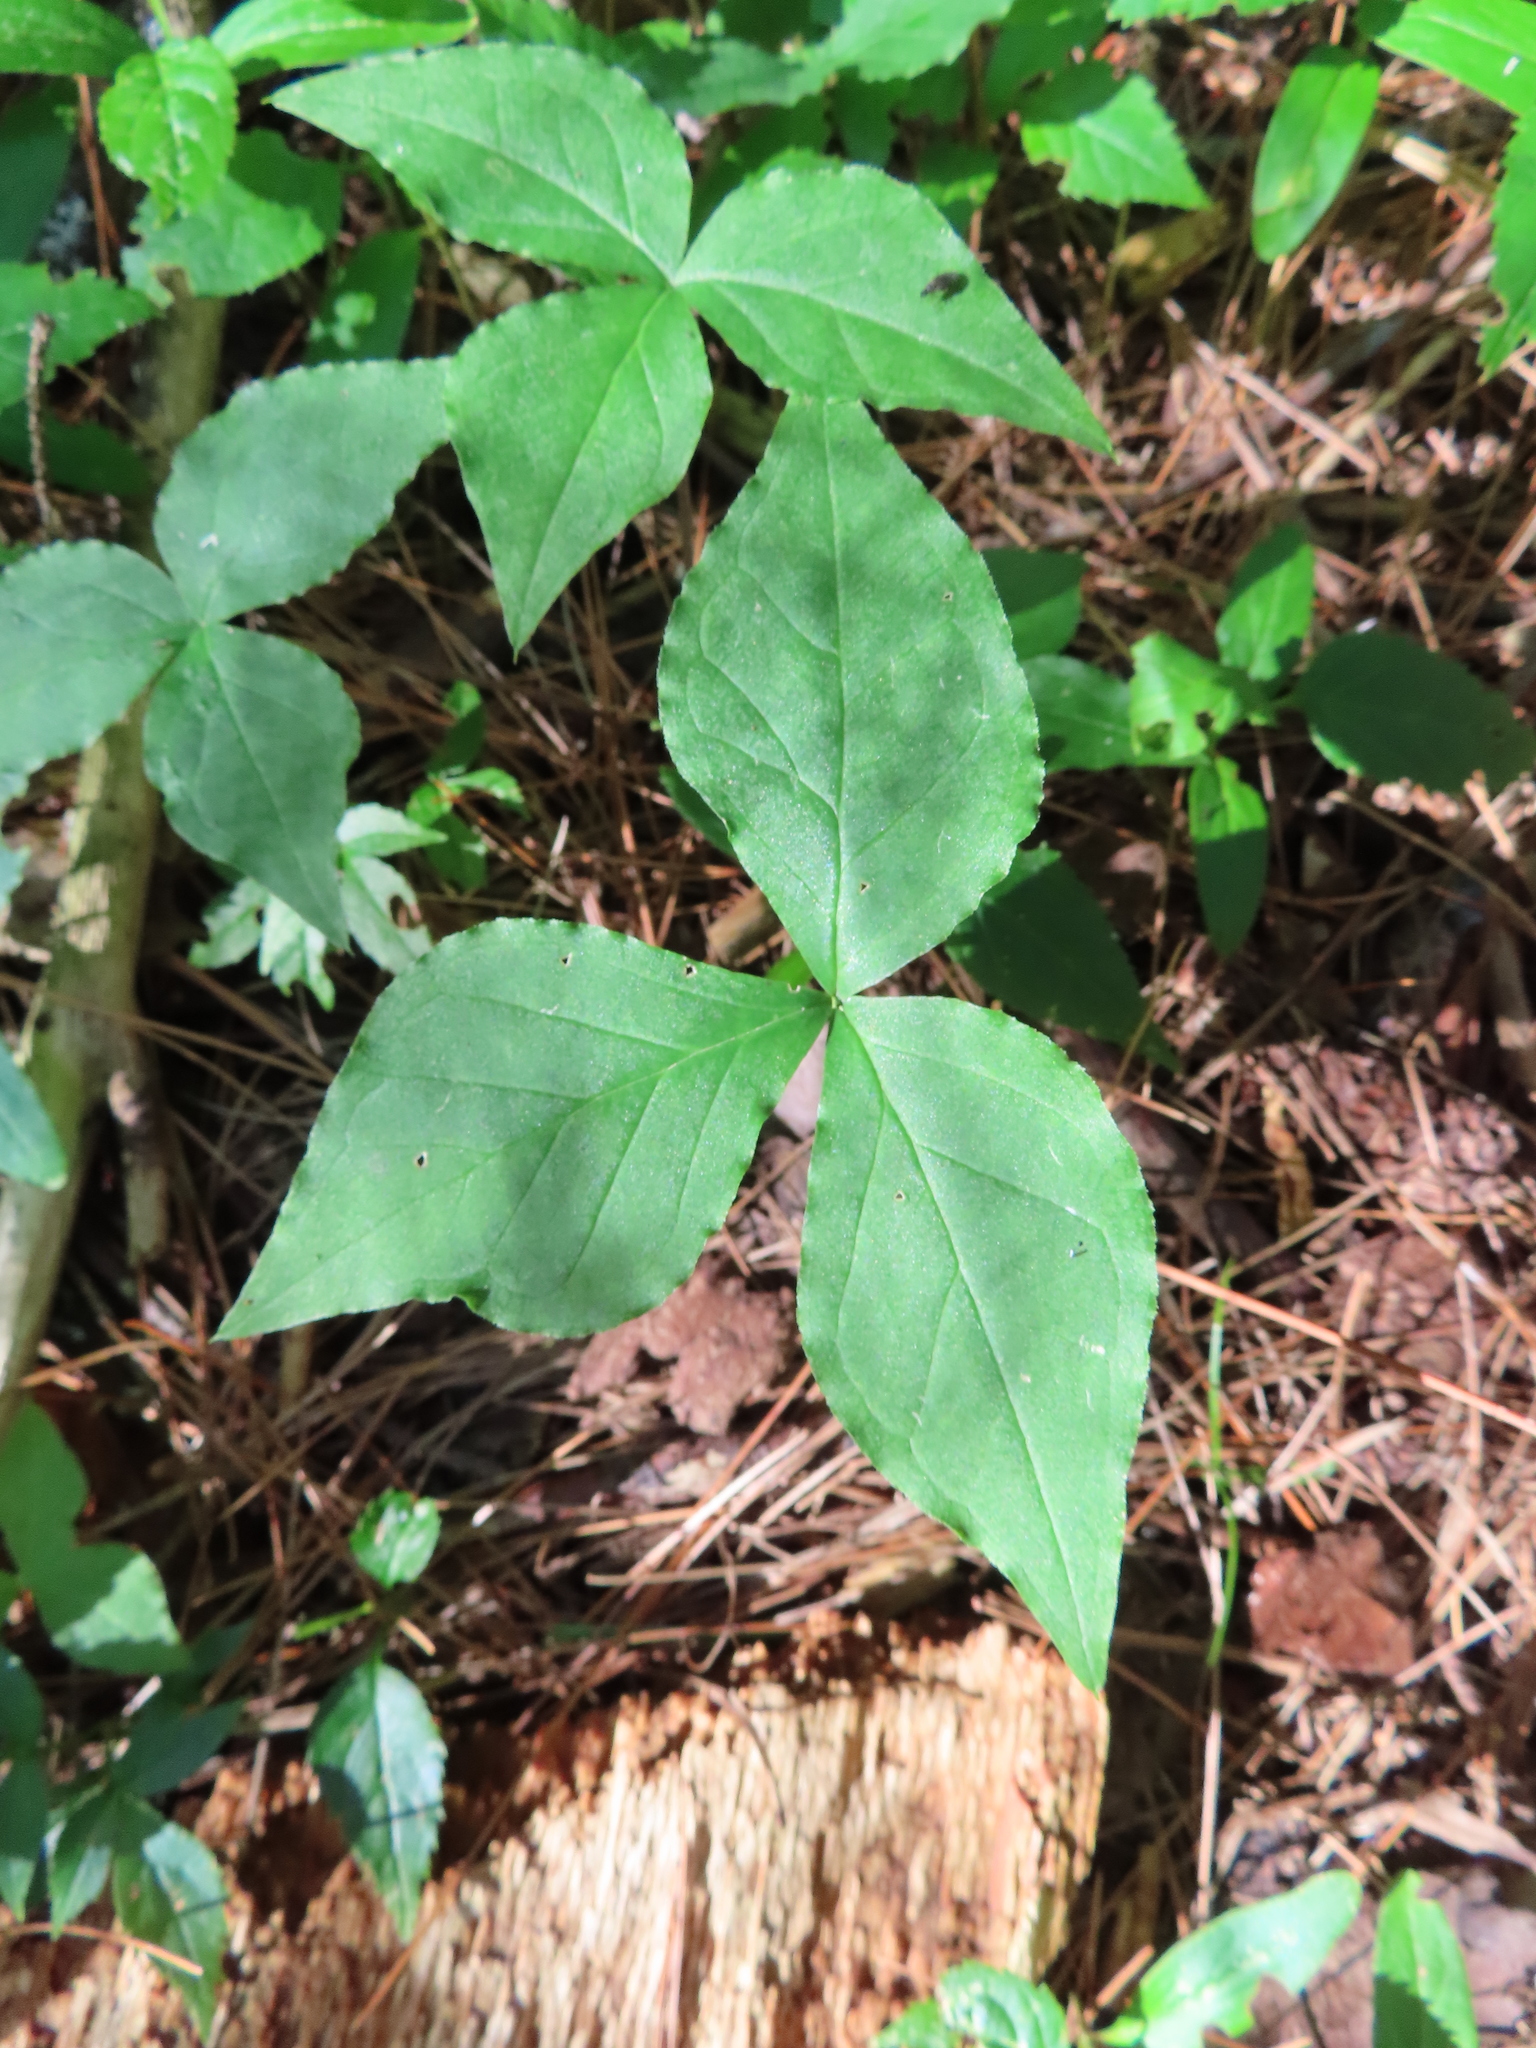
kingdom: Plantae
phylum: Tracheophyta
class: Liliopsida
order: Alismatales
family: Araceae
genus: Arisaema
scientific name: Arisaema triphyllum
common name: Jack-in-the-pulpit
